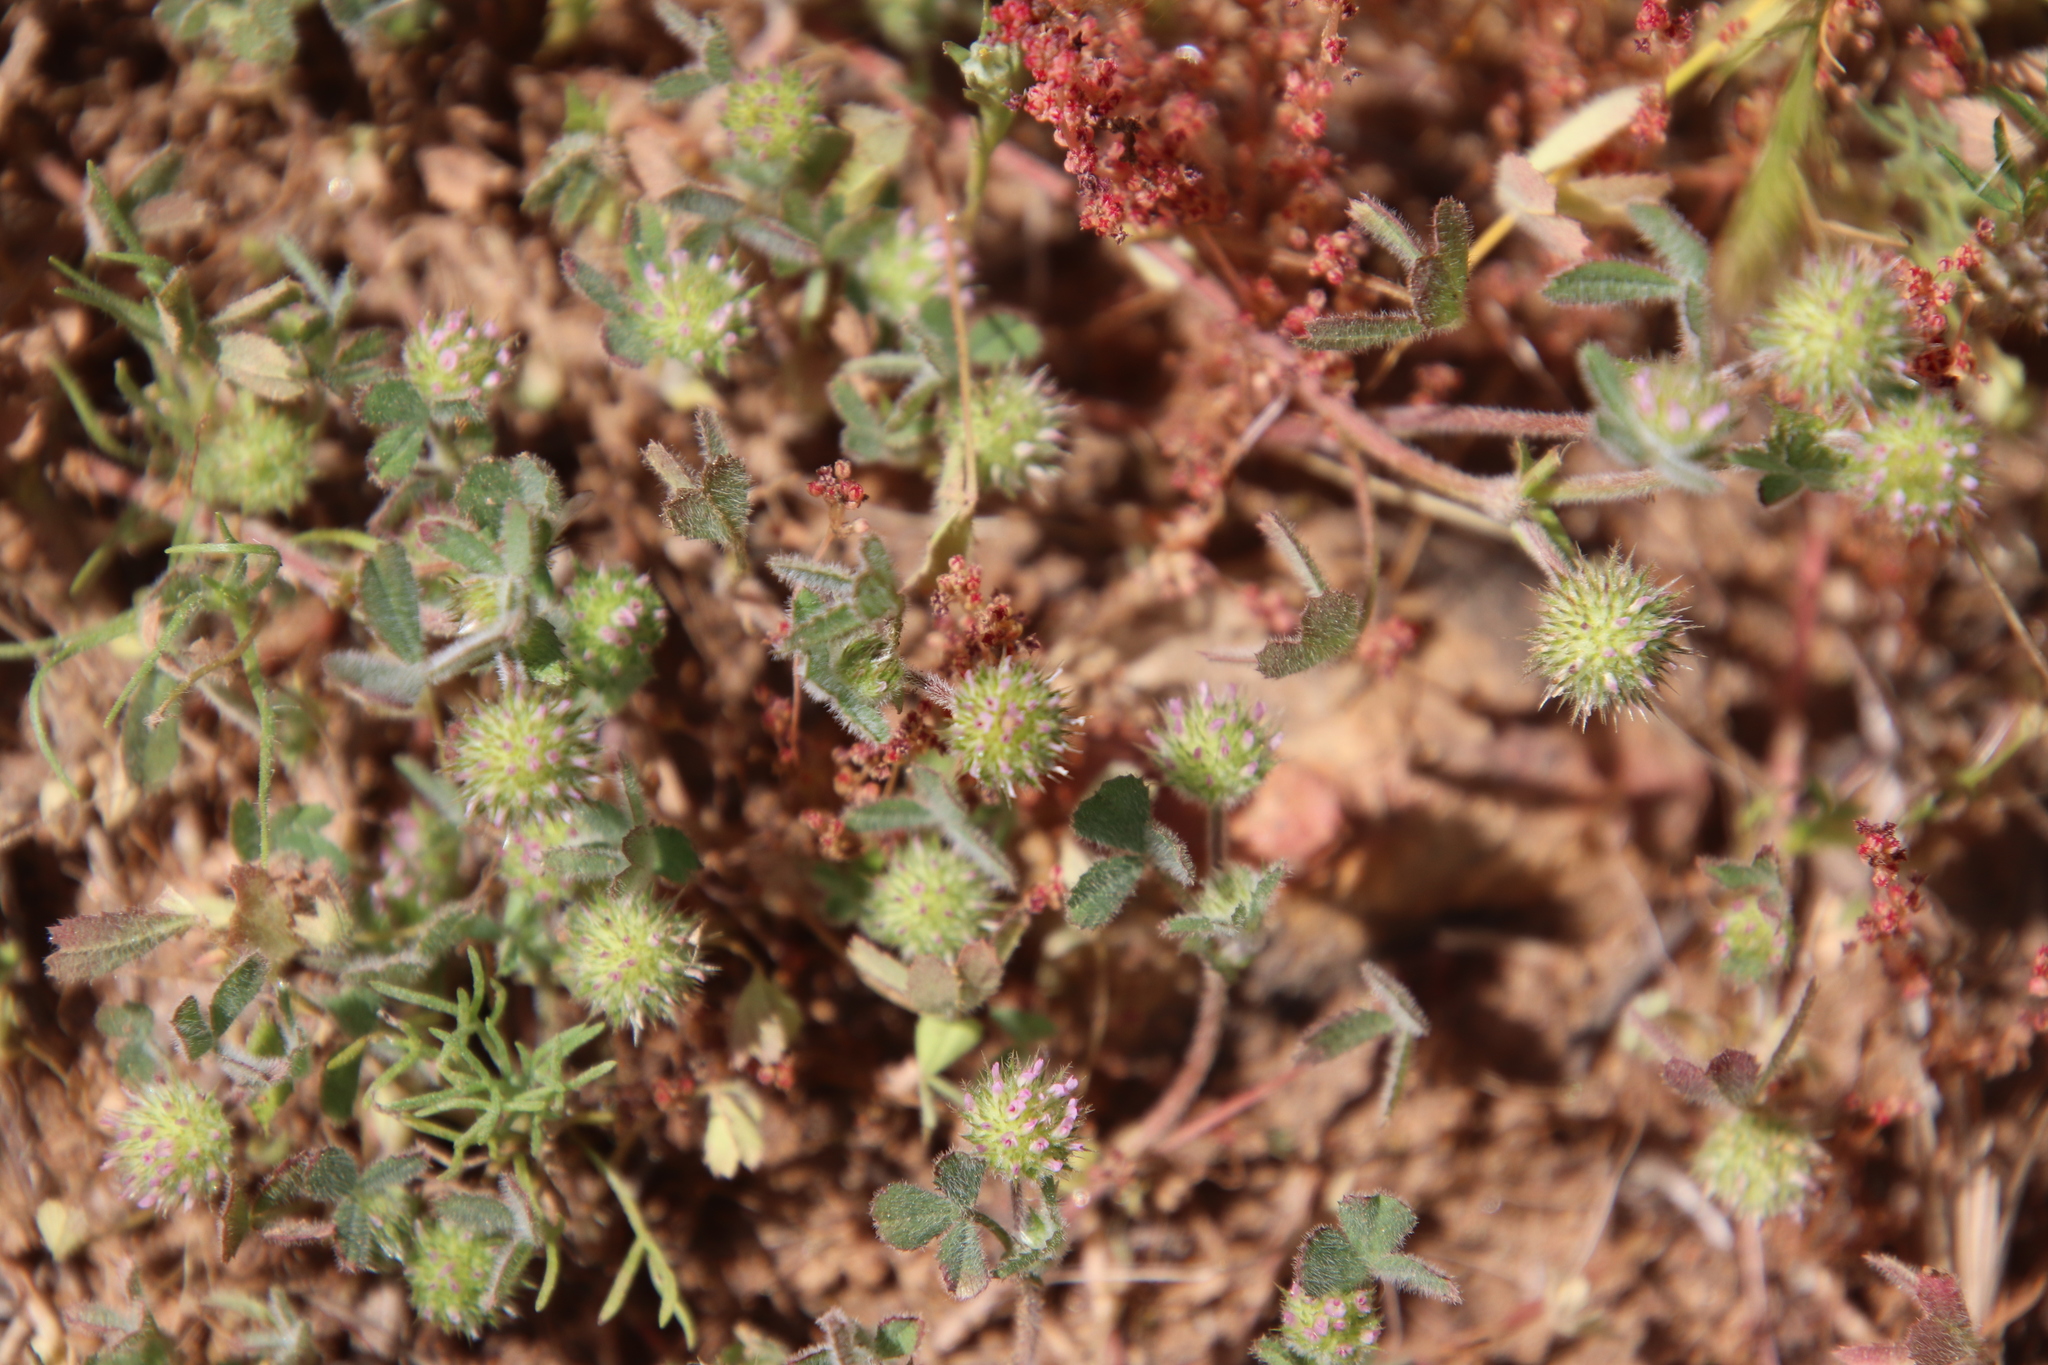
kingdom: Plantae
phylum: Tracheophyta
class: Magnoliopsida
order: Fabales
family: Fabaceae
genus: Trifolium
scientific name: Trifolium microcephalum
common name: Maiden clover
